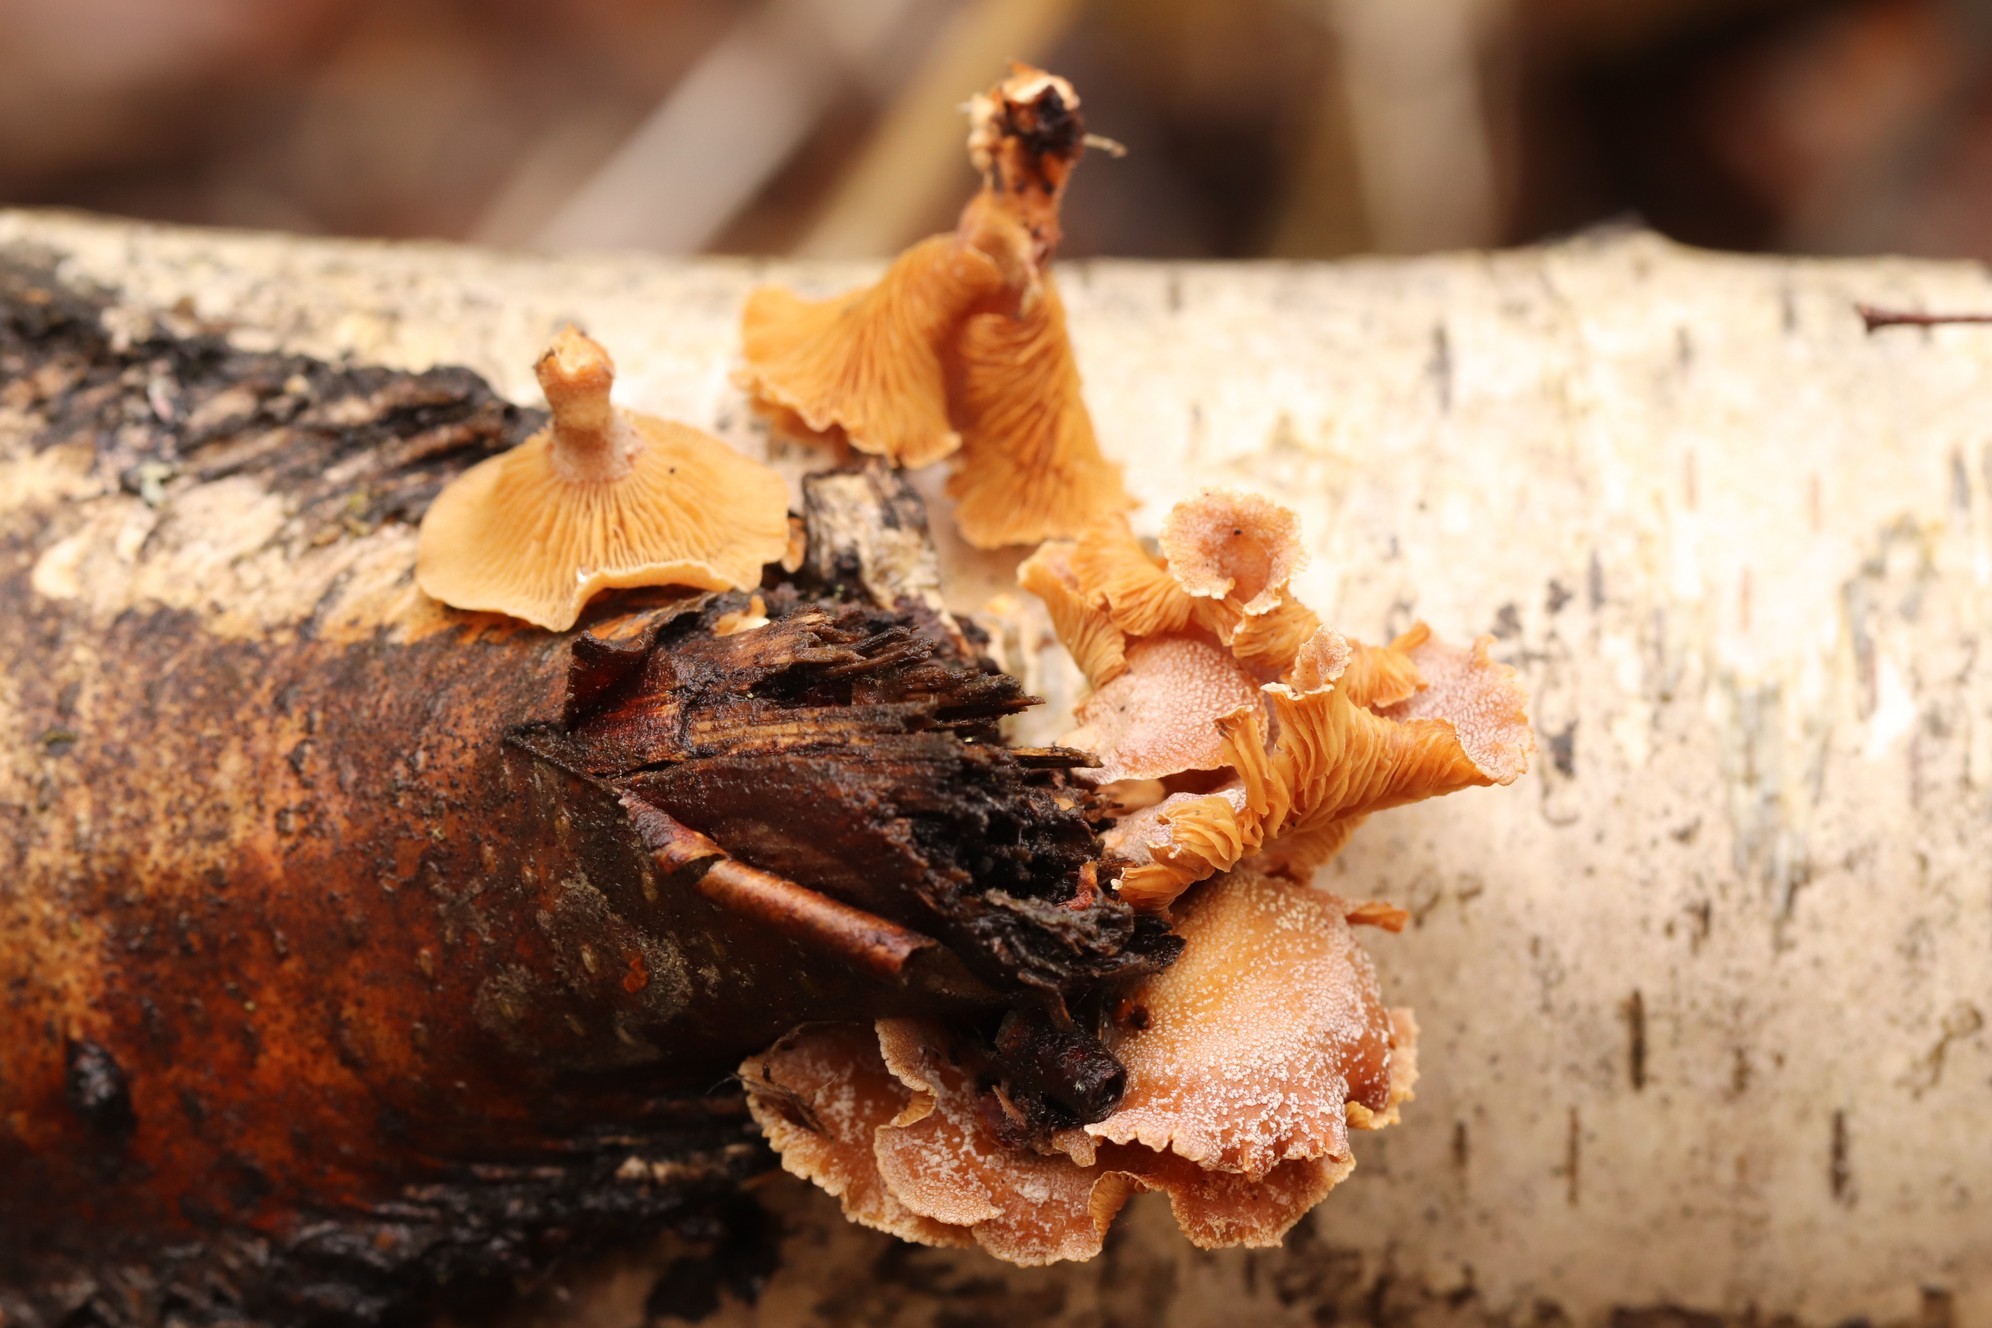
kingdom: Fungi
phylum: Basidiomycota
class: Agaricomycetes
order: Agaricales
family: Mycenaceae
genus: Panellus
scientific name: Panellus stipticus
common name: Bitter oysterling
